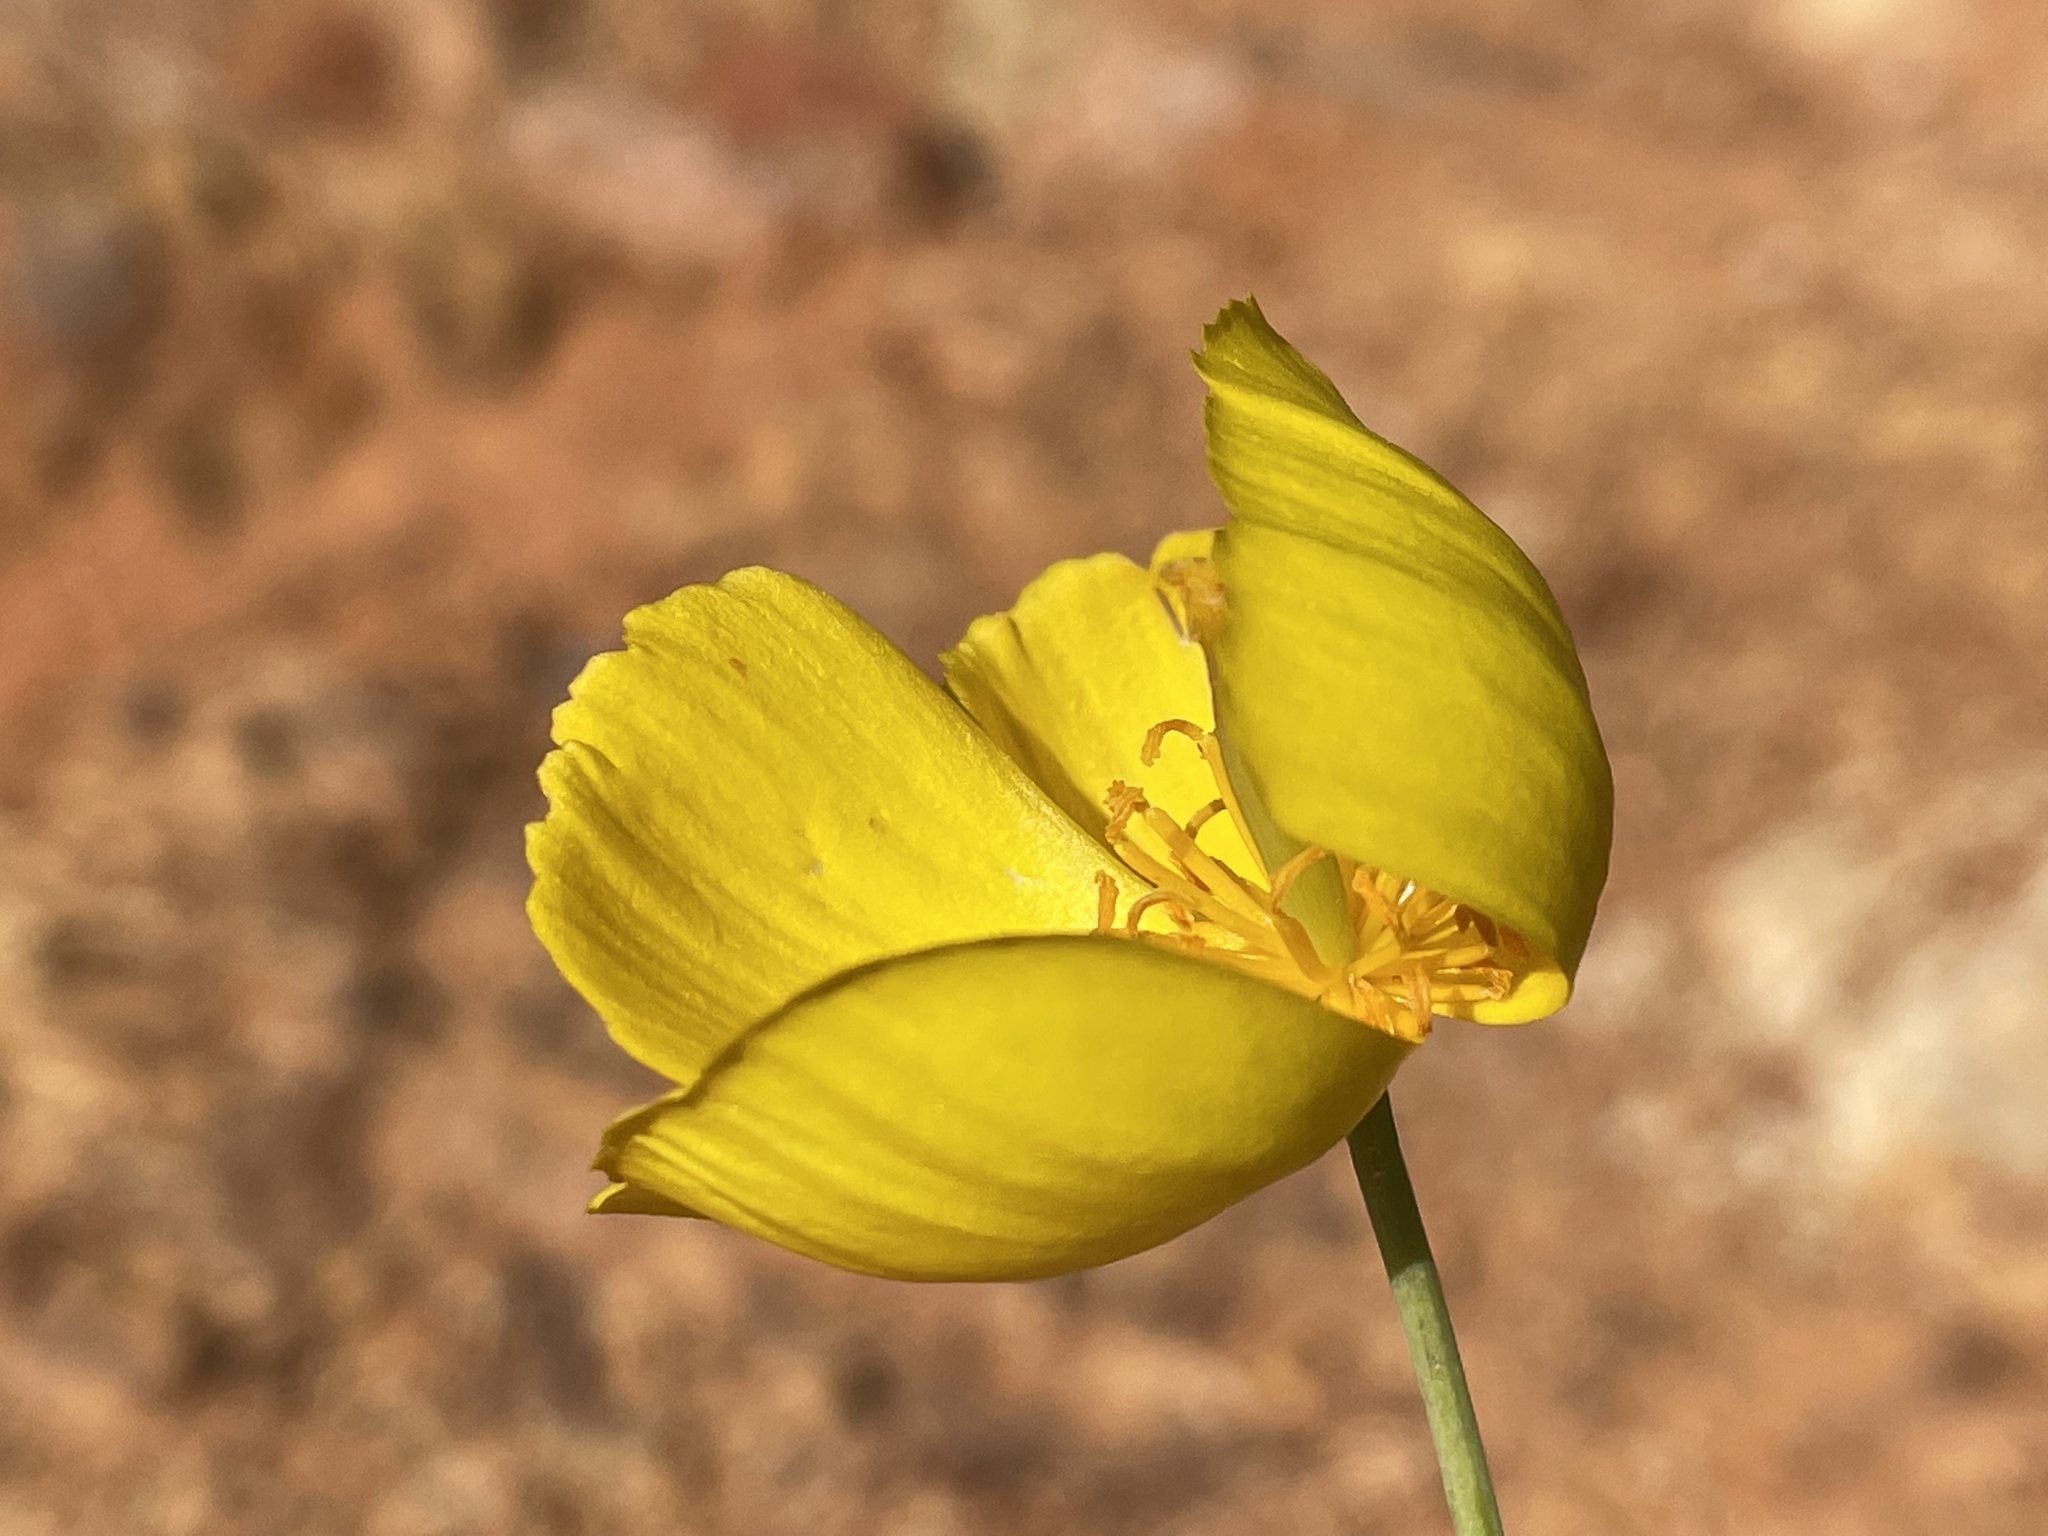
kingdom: Plantae
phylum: Tracheophyta
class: Magnoliopsida
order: Ranunculales
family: Papaveraceae
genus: Dendromecon
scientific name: Dendromecon rigida
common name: Tree poppy
